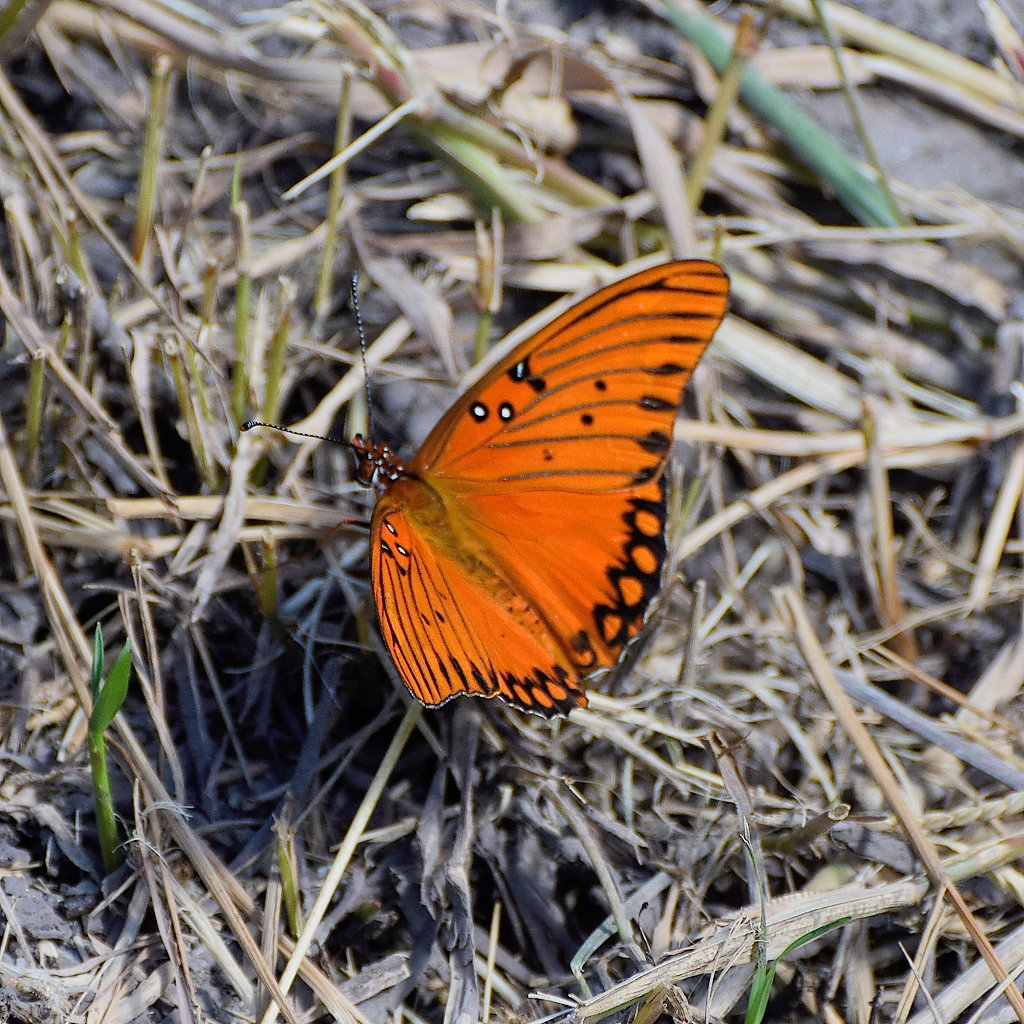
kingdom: Animalia
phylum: Arthropoda
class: Insecta
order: Lepidoptera
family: Nymphalidae
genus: Dione
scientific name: Dione vanillae
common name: Gulf fritillary
